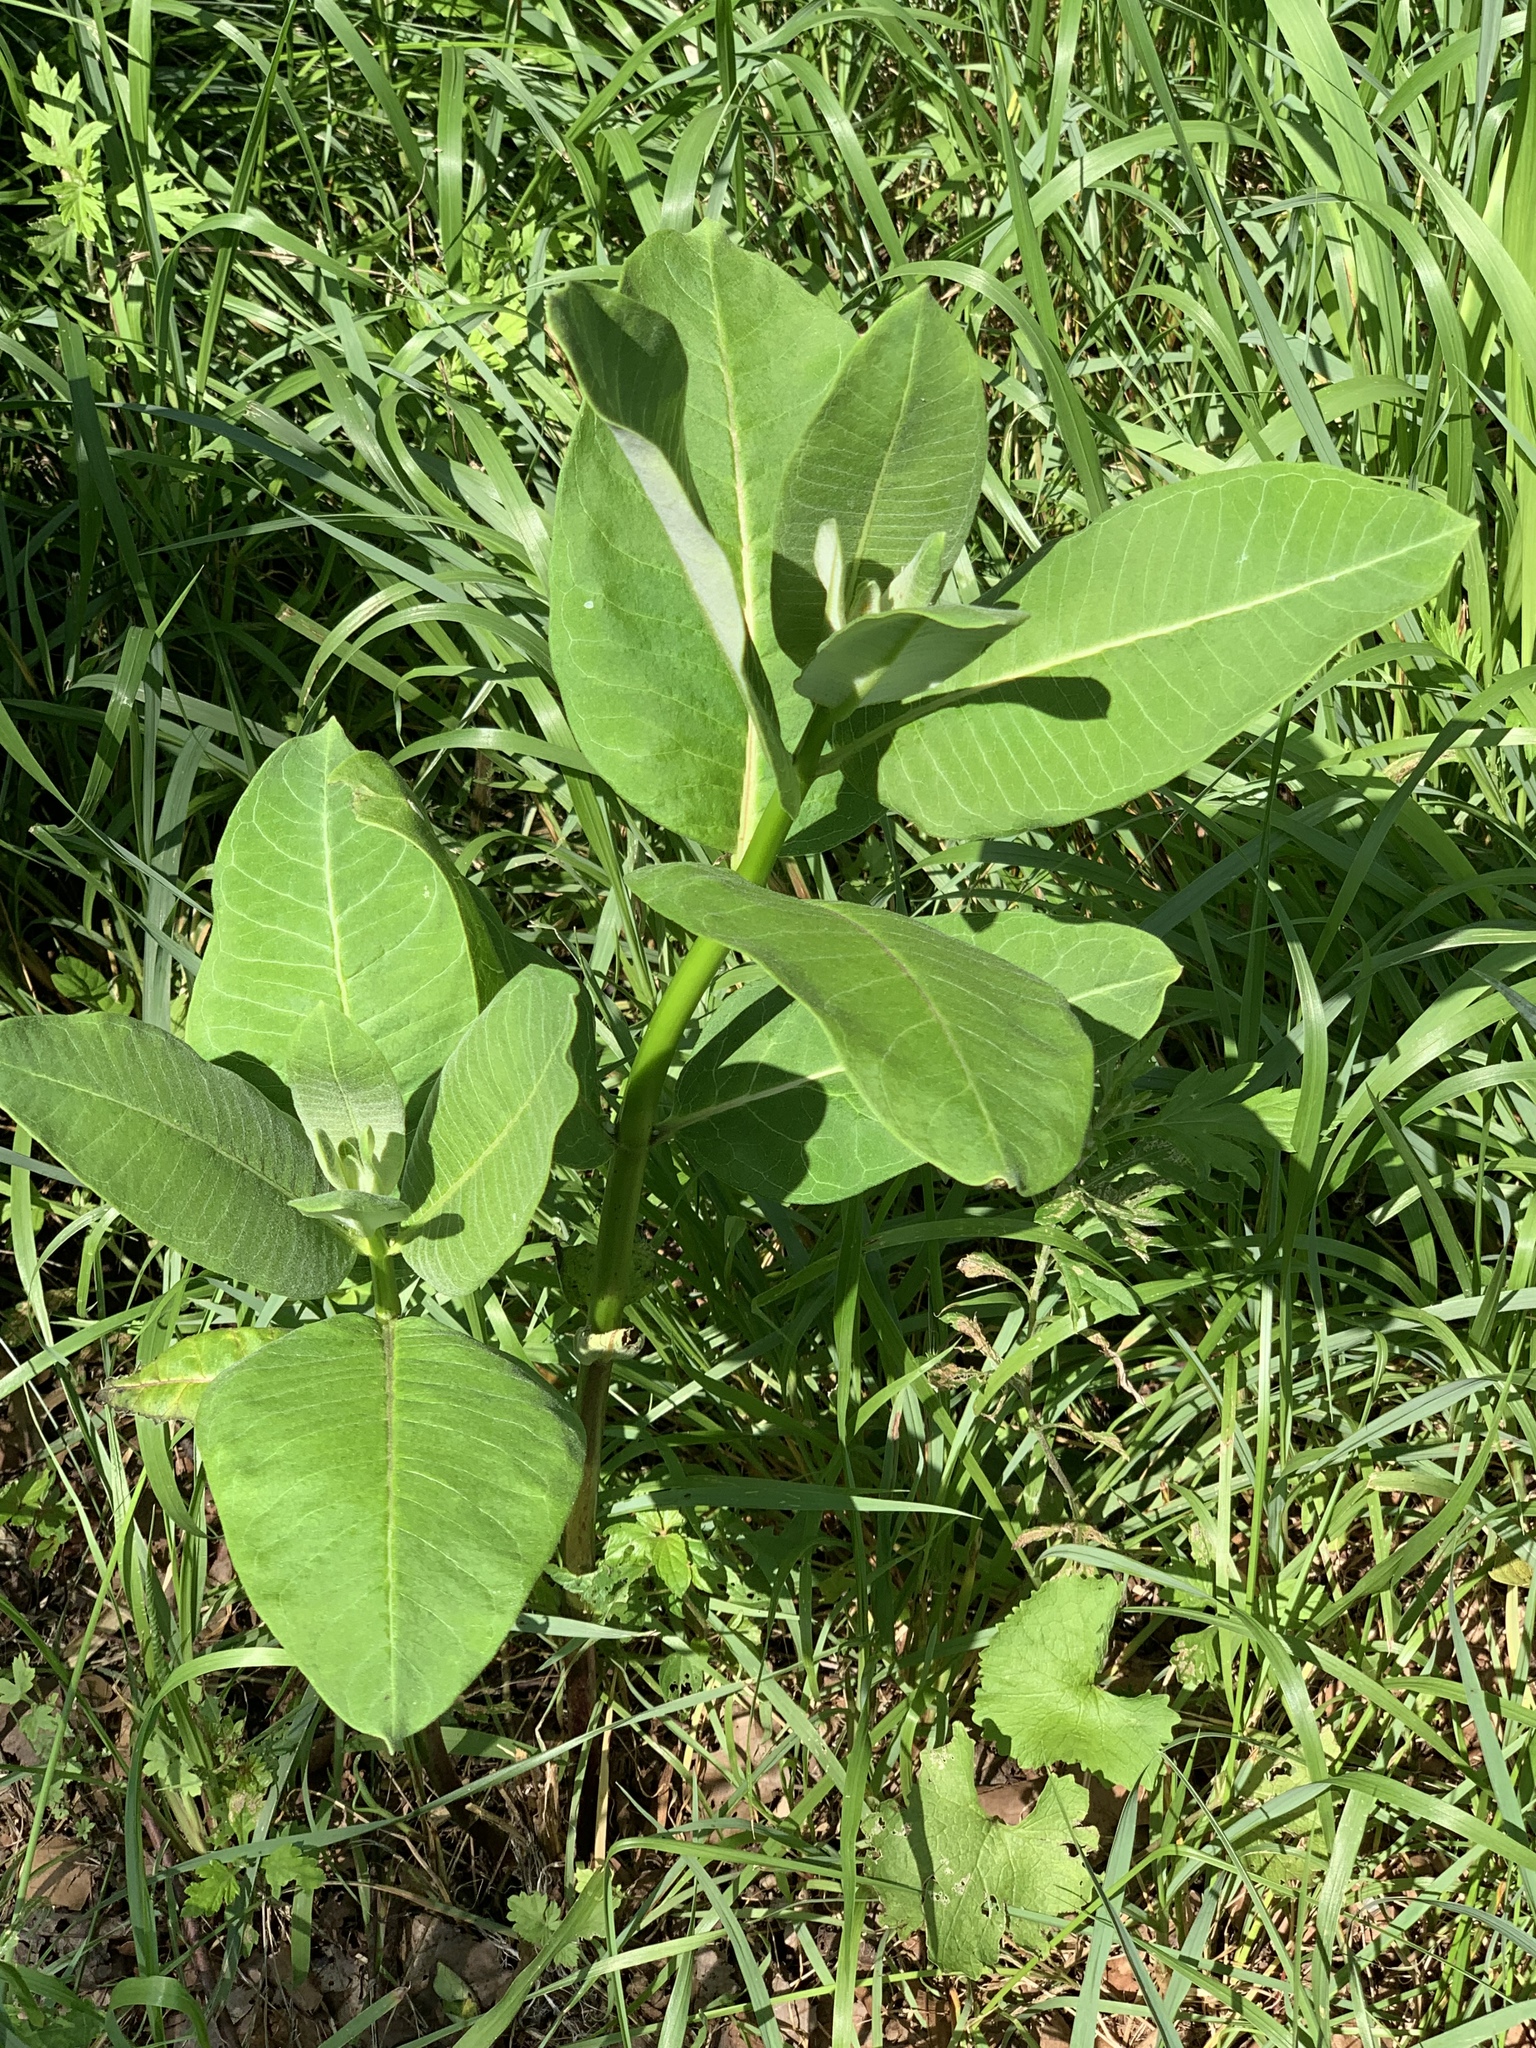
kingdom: Plantae
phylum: Tracheophyta
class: Magnoliopsida
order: Gentianales
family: Apocynaceae
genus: Asclepias
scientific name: Asclepias syriaca
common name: Common milkweed
